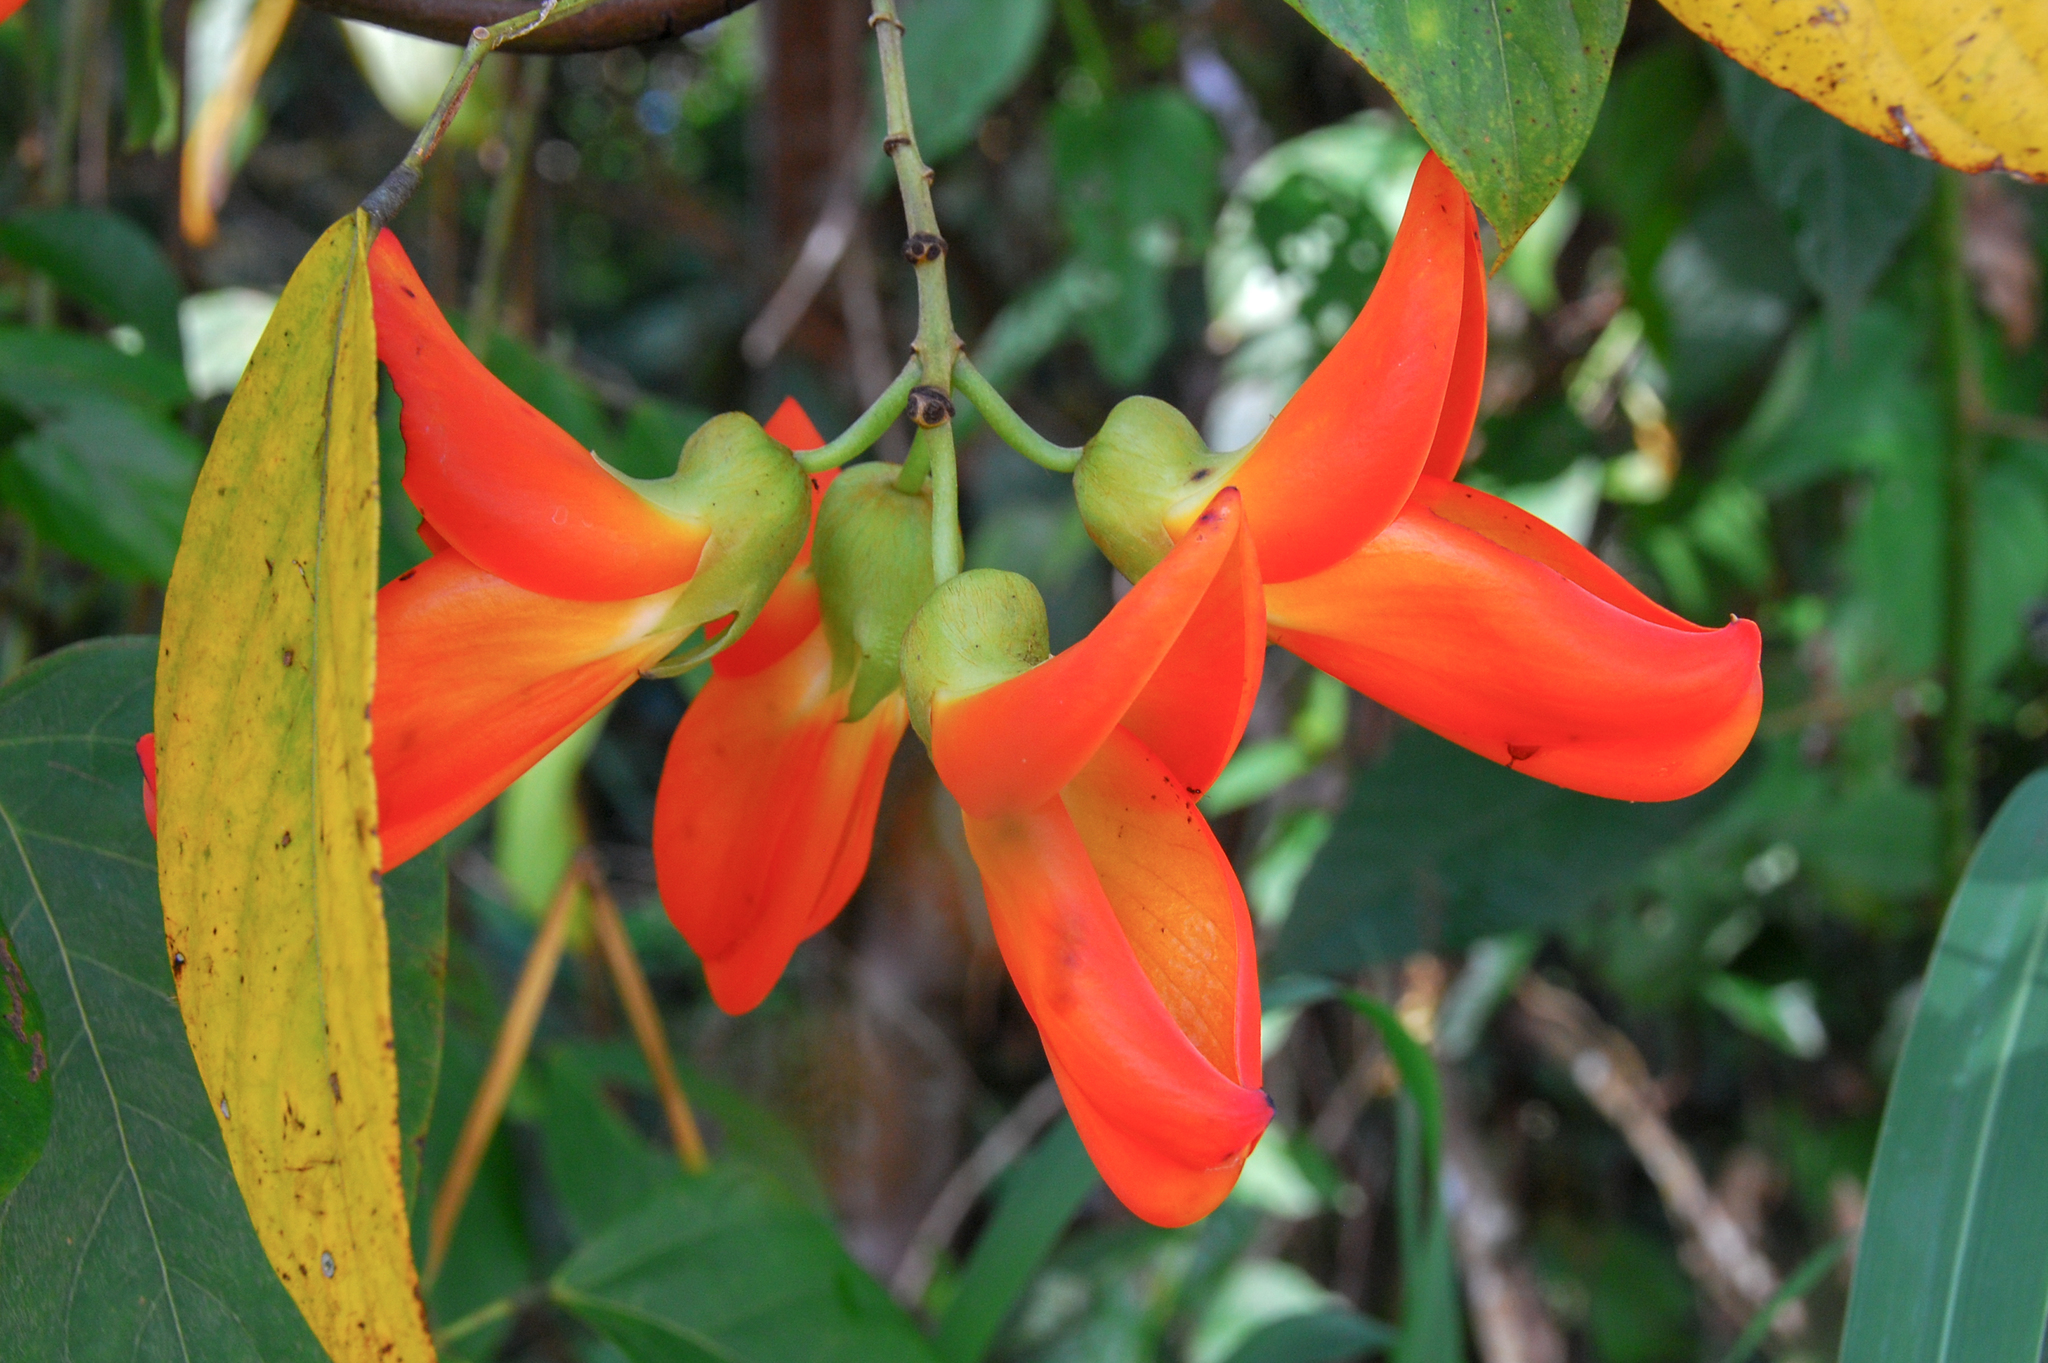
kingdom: Plantae
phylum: Tracheophyta
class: Magnoliopsida
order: Fabales
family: Fabaceae
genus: Mucuna
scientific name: Mucuna rostrata
